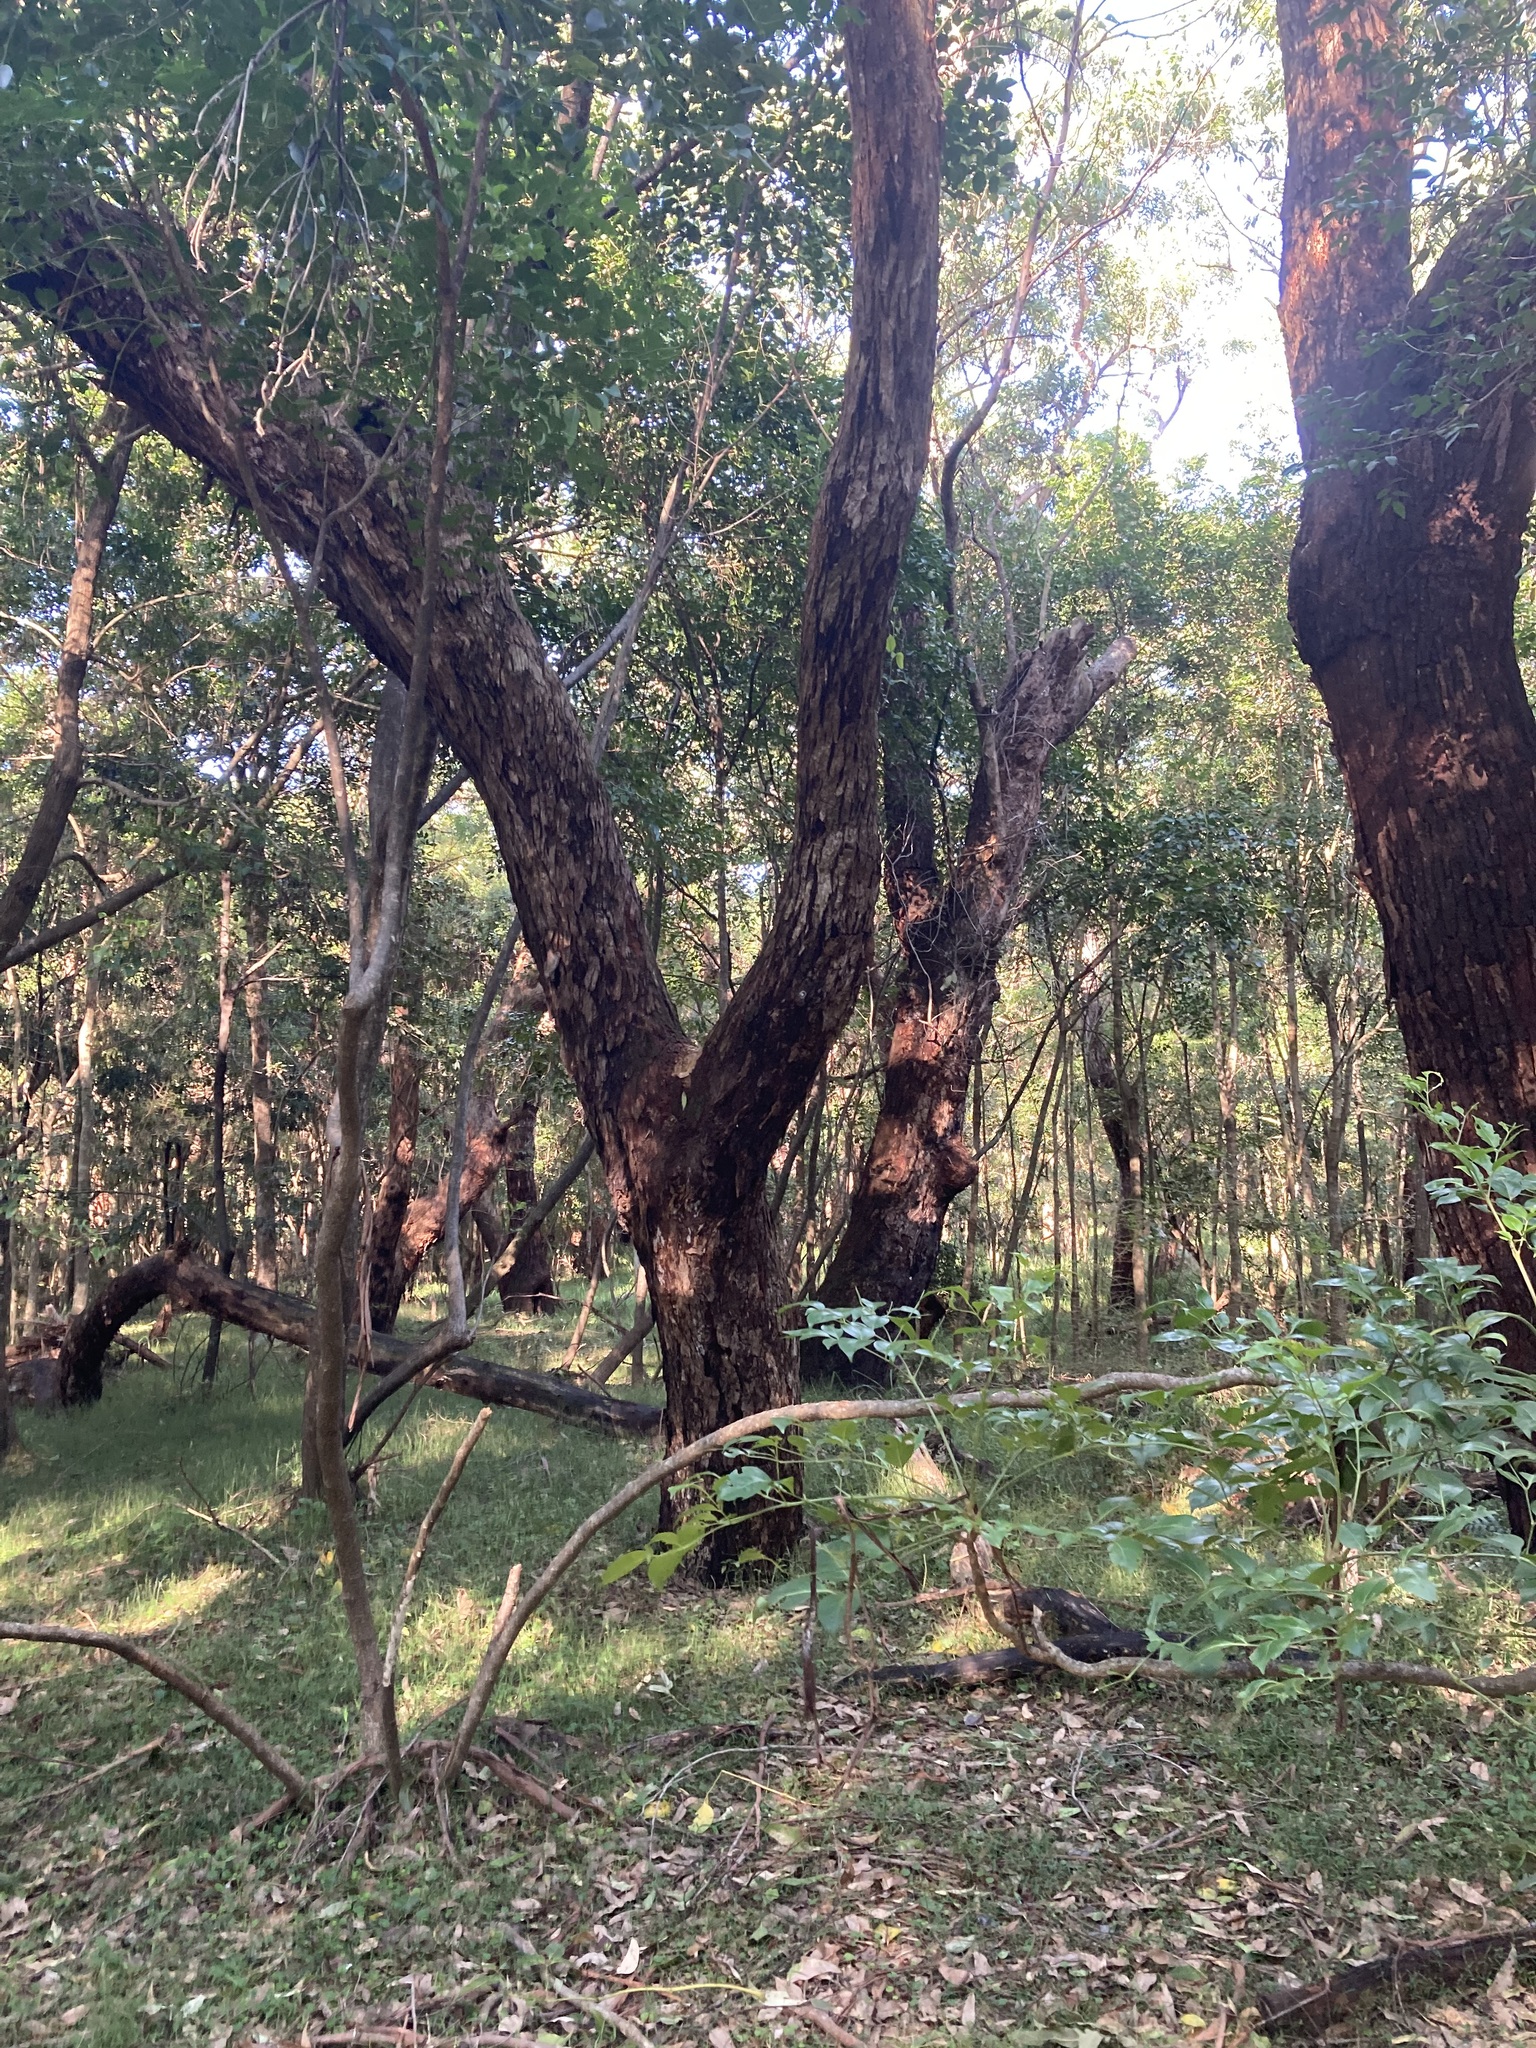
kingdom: Plantae
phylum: Tracheophyta
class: Magnoliopsida
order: Myrtales
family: Myrtaceae
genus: Eucalyptus
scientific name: Eucalyptus botryoides
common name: Bangalay
